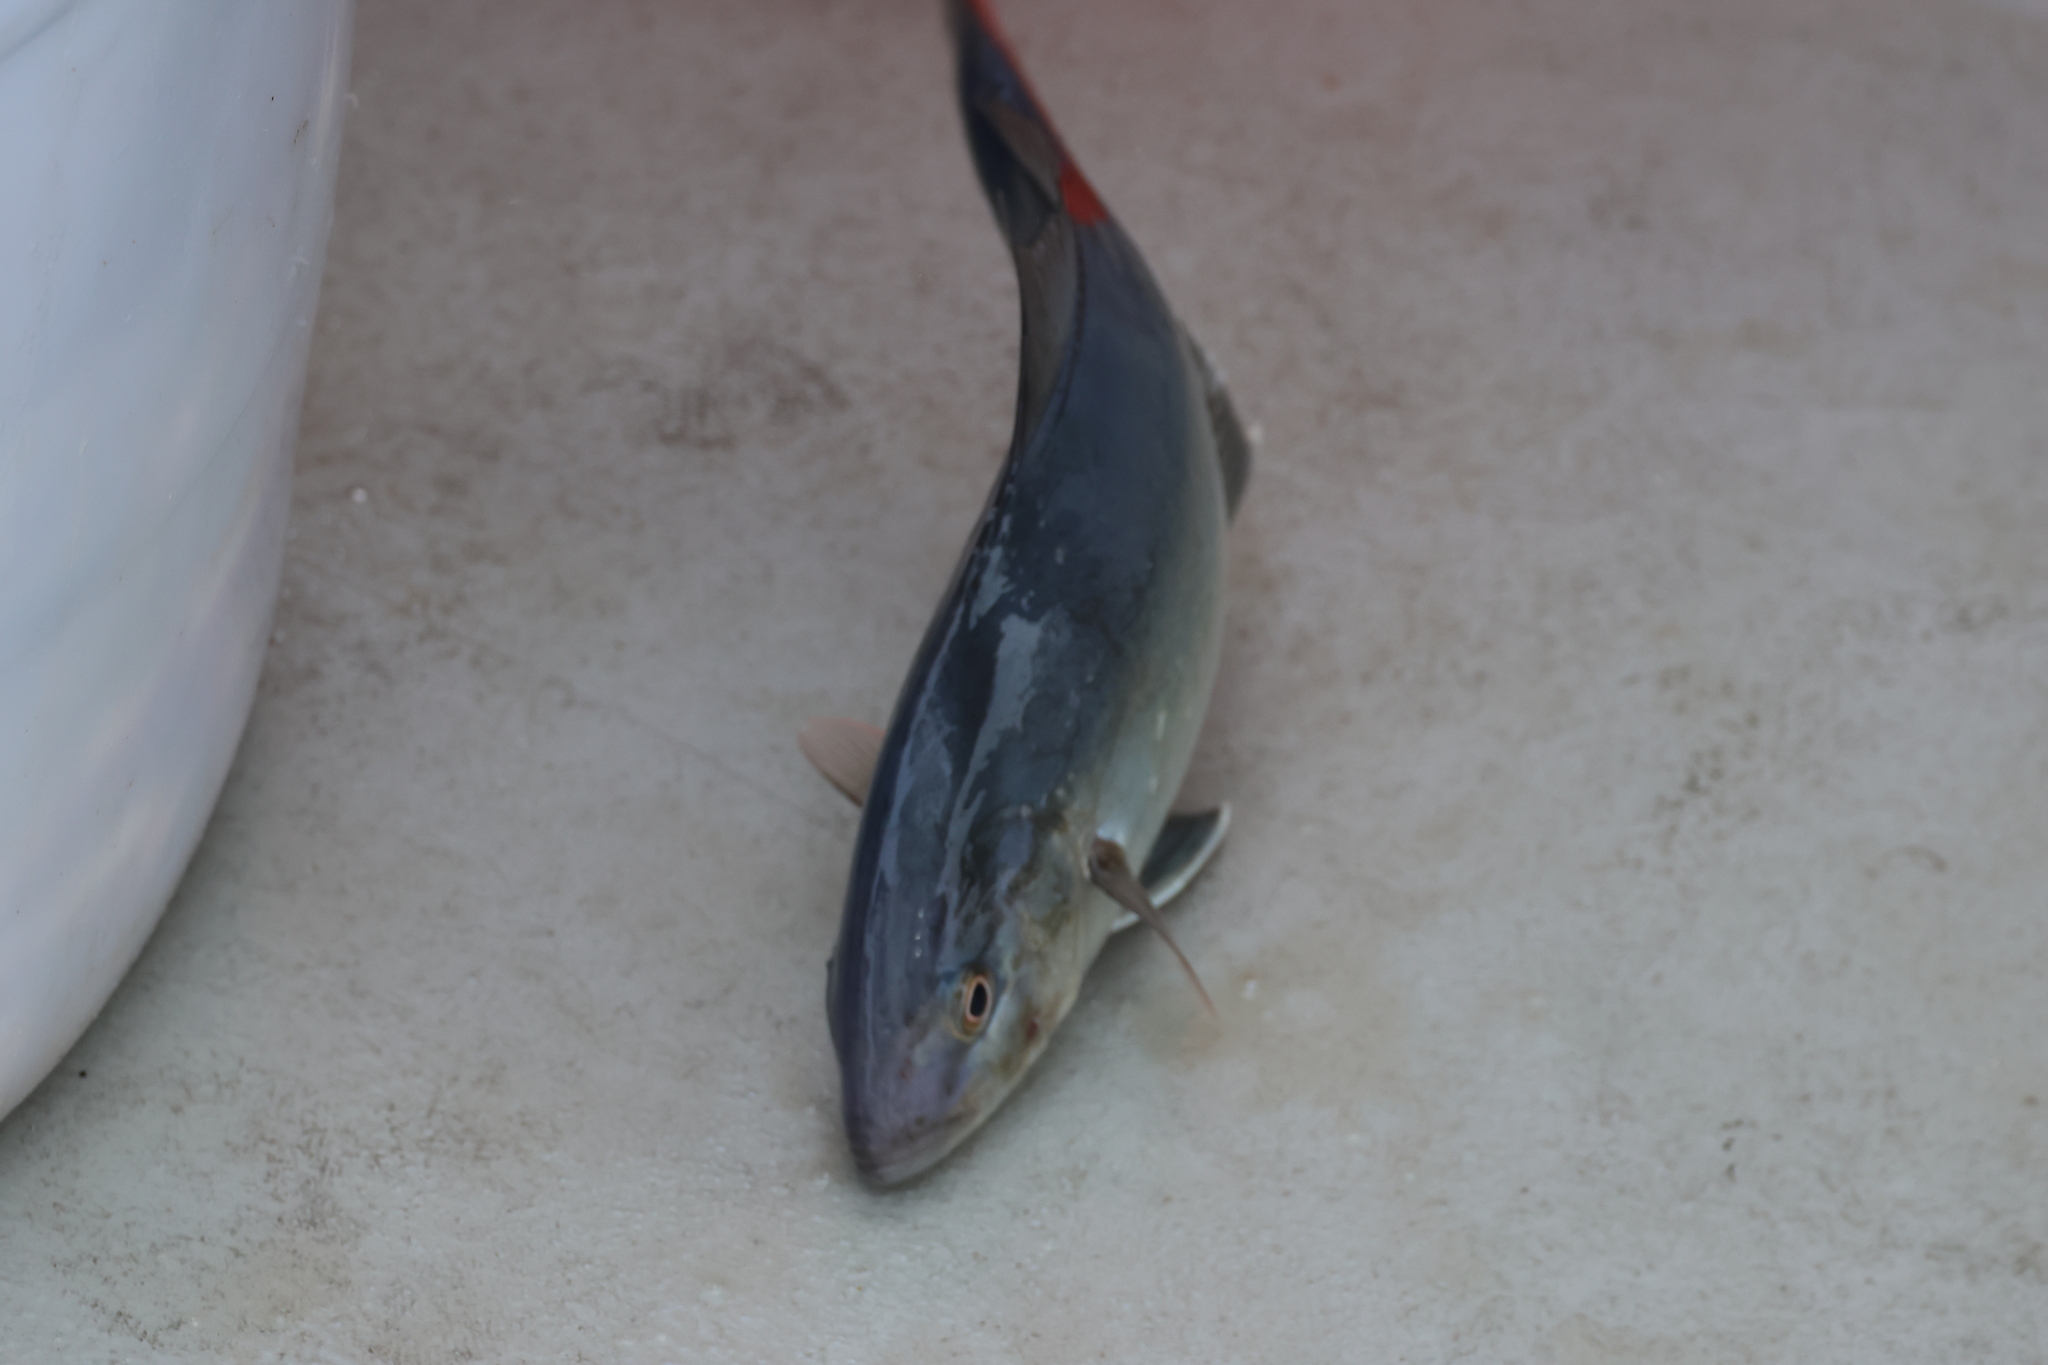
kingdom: Animalia
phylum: Chordata
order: Perciformes
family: Carangidae
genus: Seriola
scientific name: Seriola rivoliana
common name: Almaco jack
